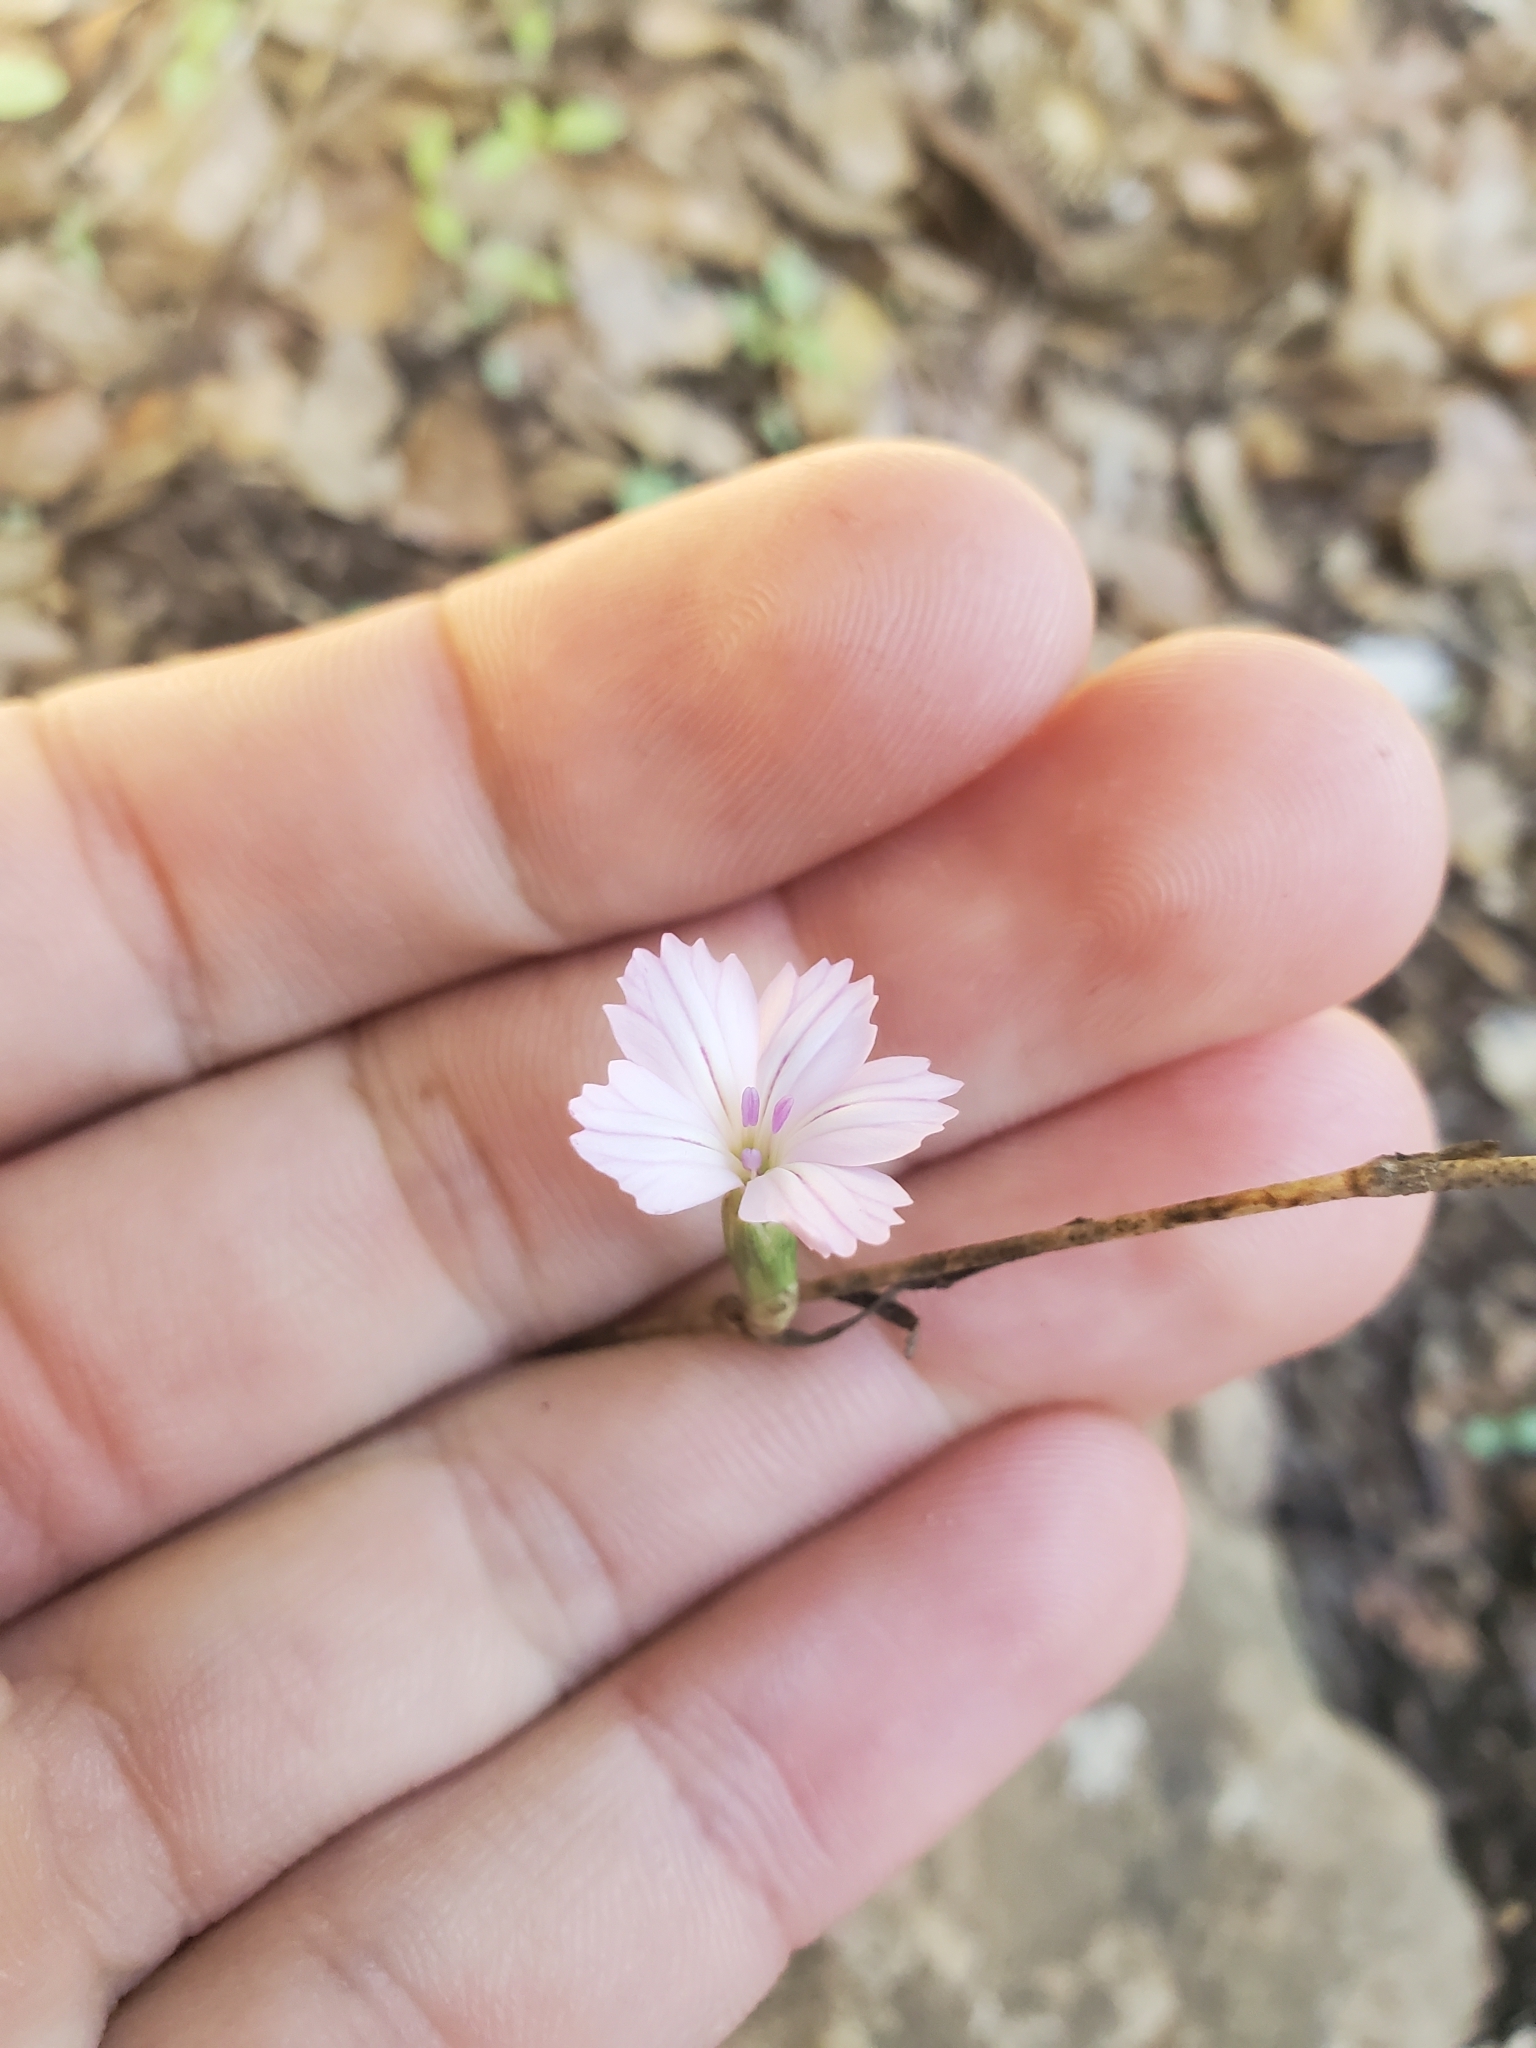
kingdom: Plantae
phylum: Tracheophyta
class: Magnoliopsida
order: Caryophyllales
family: Caryophyllaceae
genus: Dianthus
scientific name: Dianthus strictus
